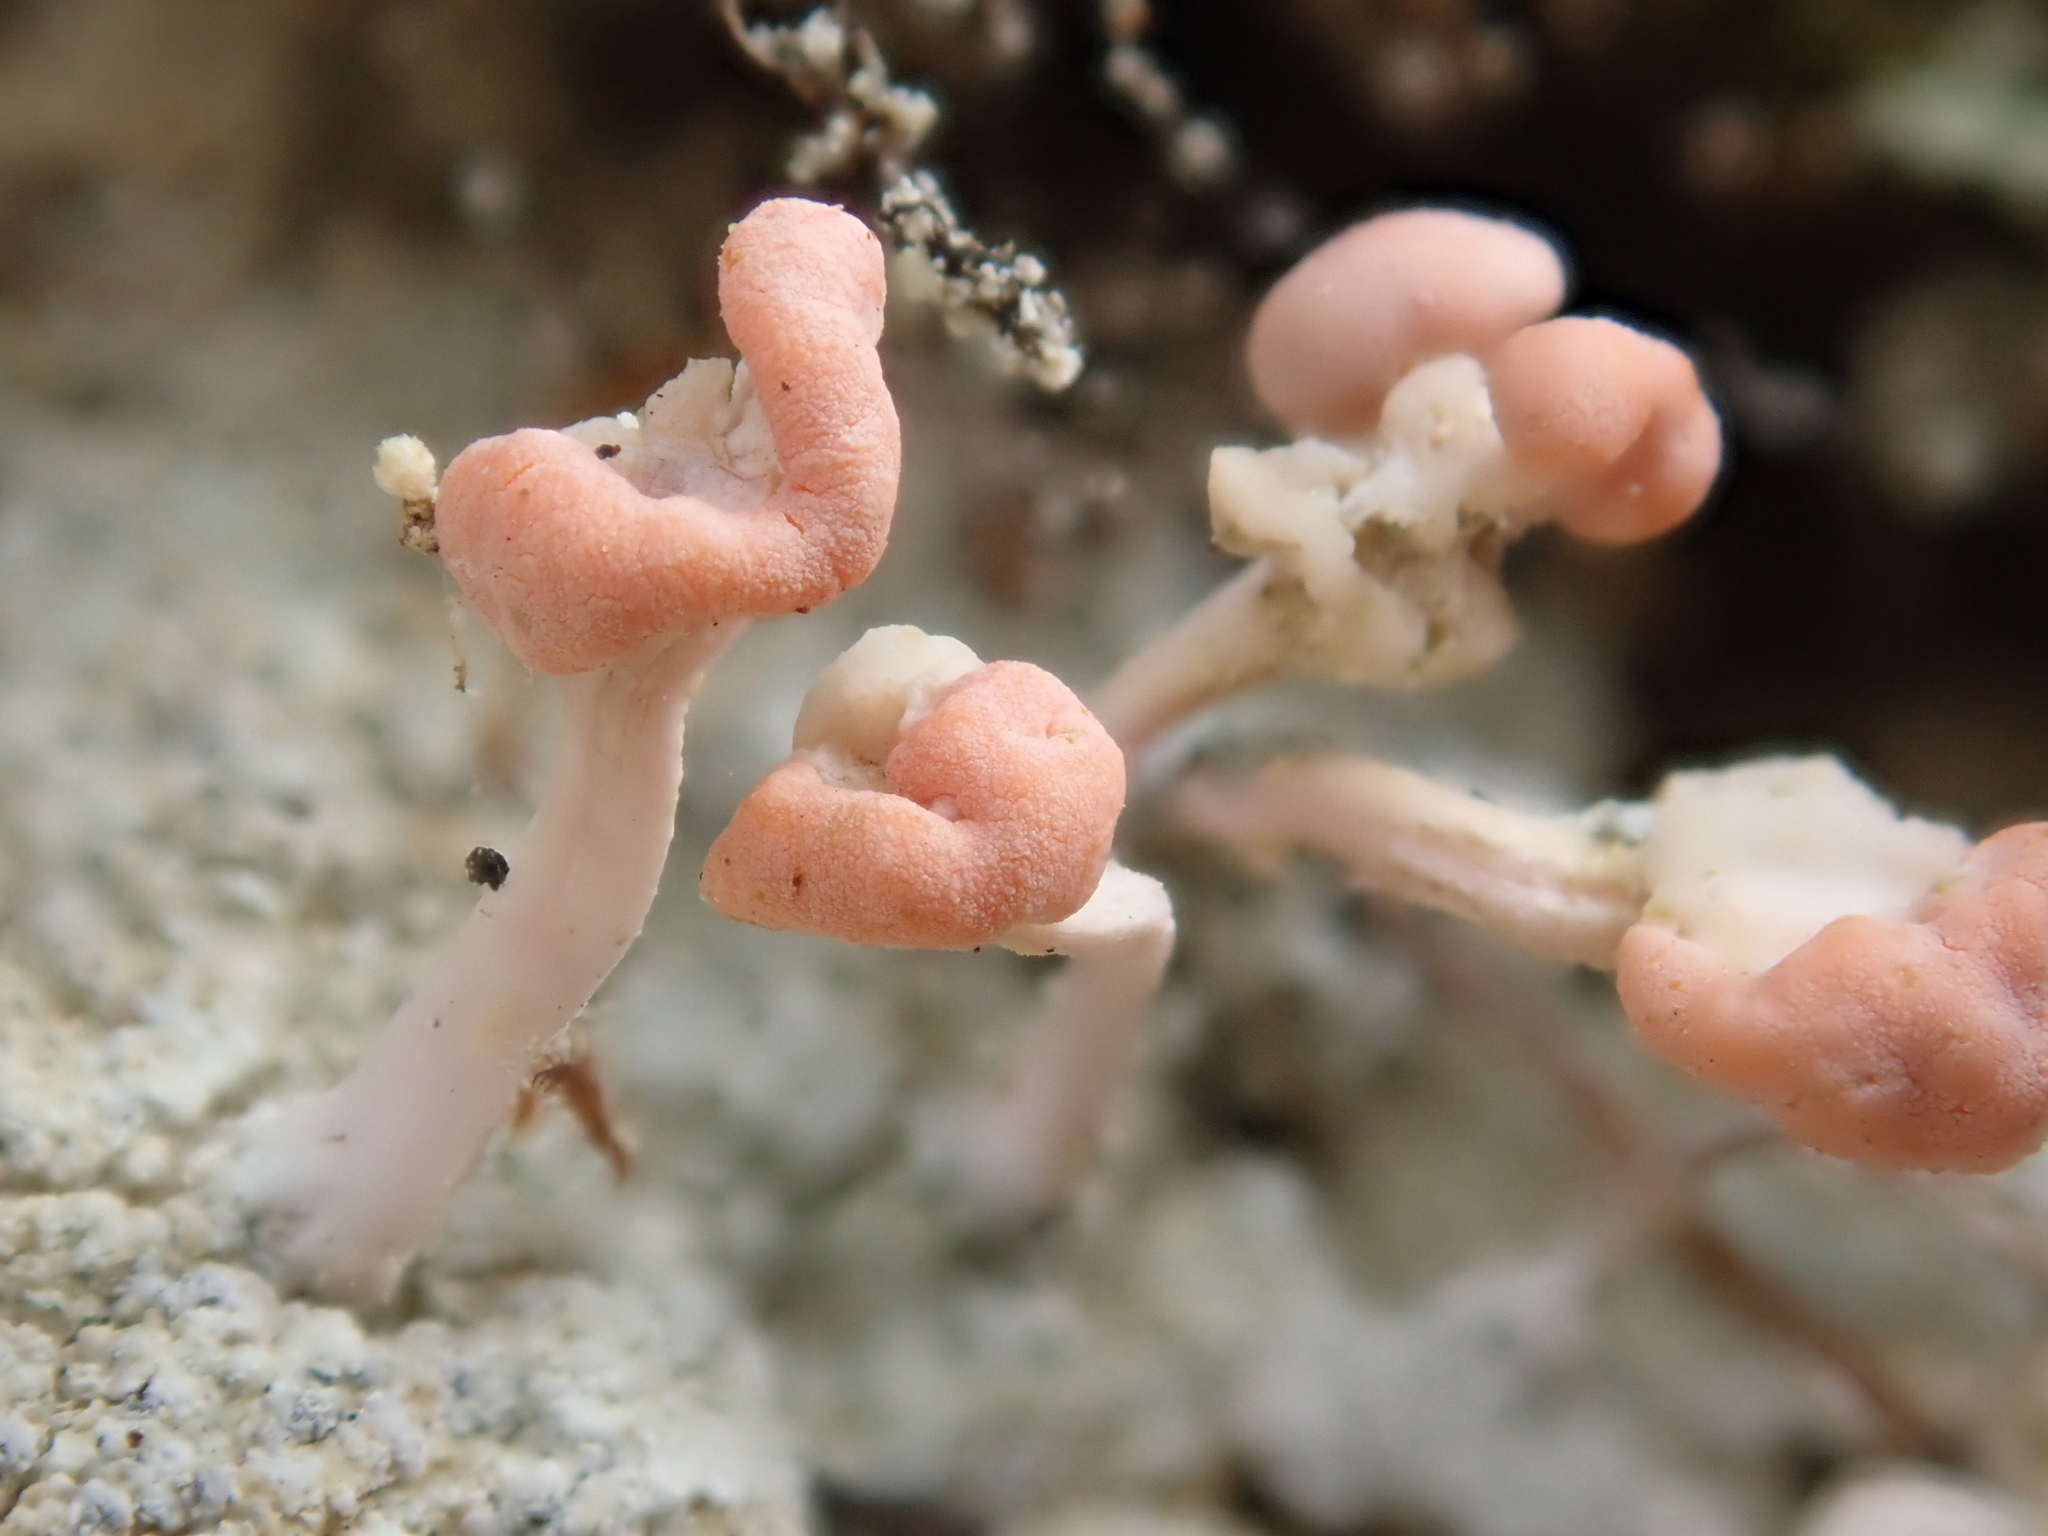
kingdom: Fungi
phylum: Ascomycota
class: Lecanoromycetes
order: Pertusariales
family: Icmadophilaceae
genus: Dibaeis
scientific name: Dibaeis arcuata
